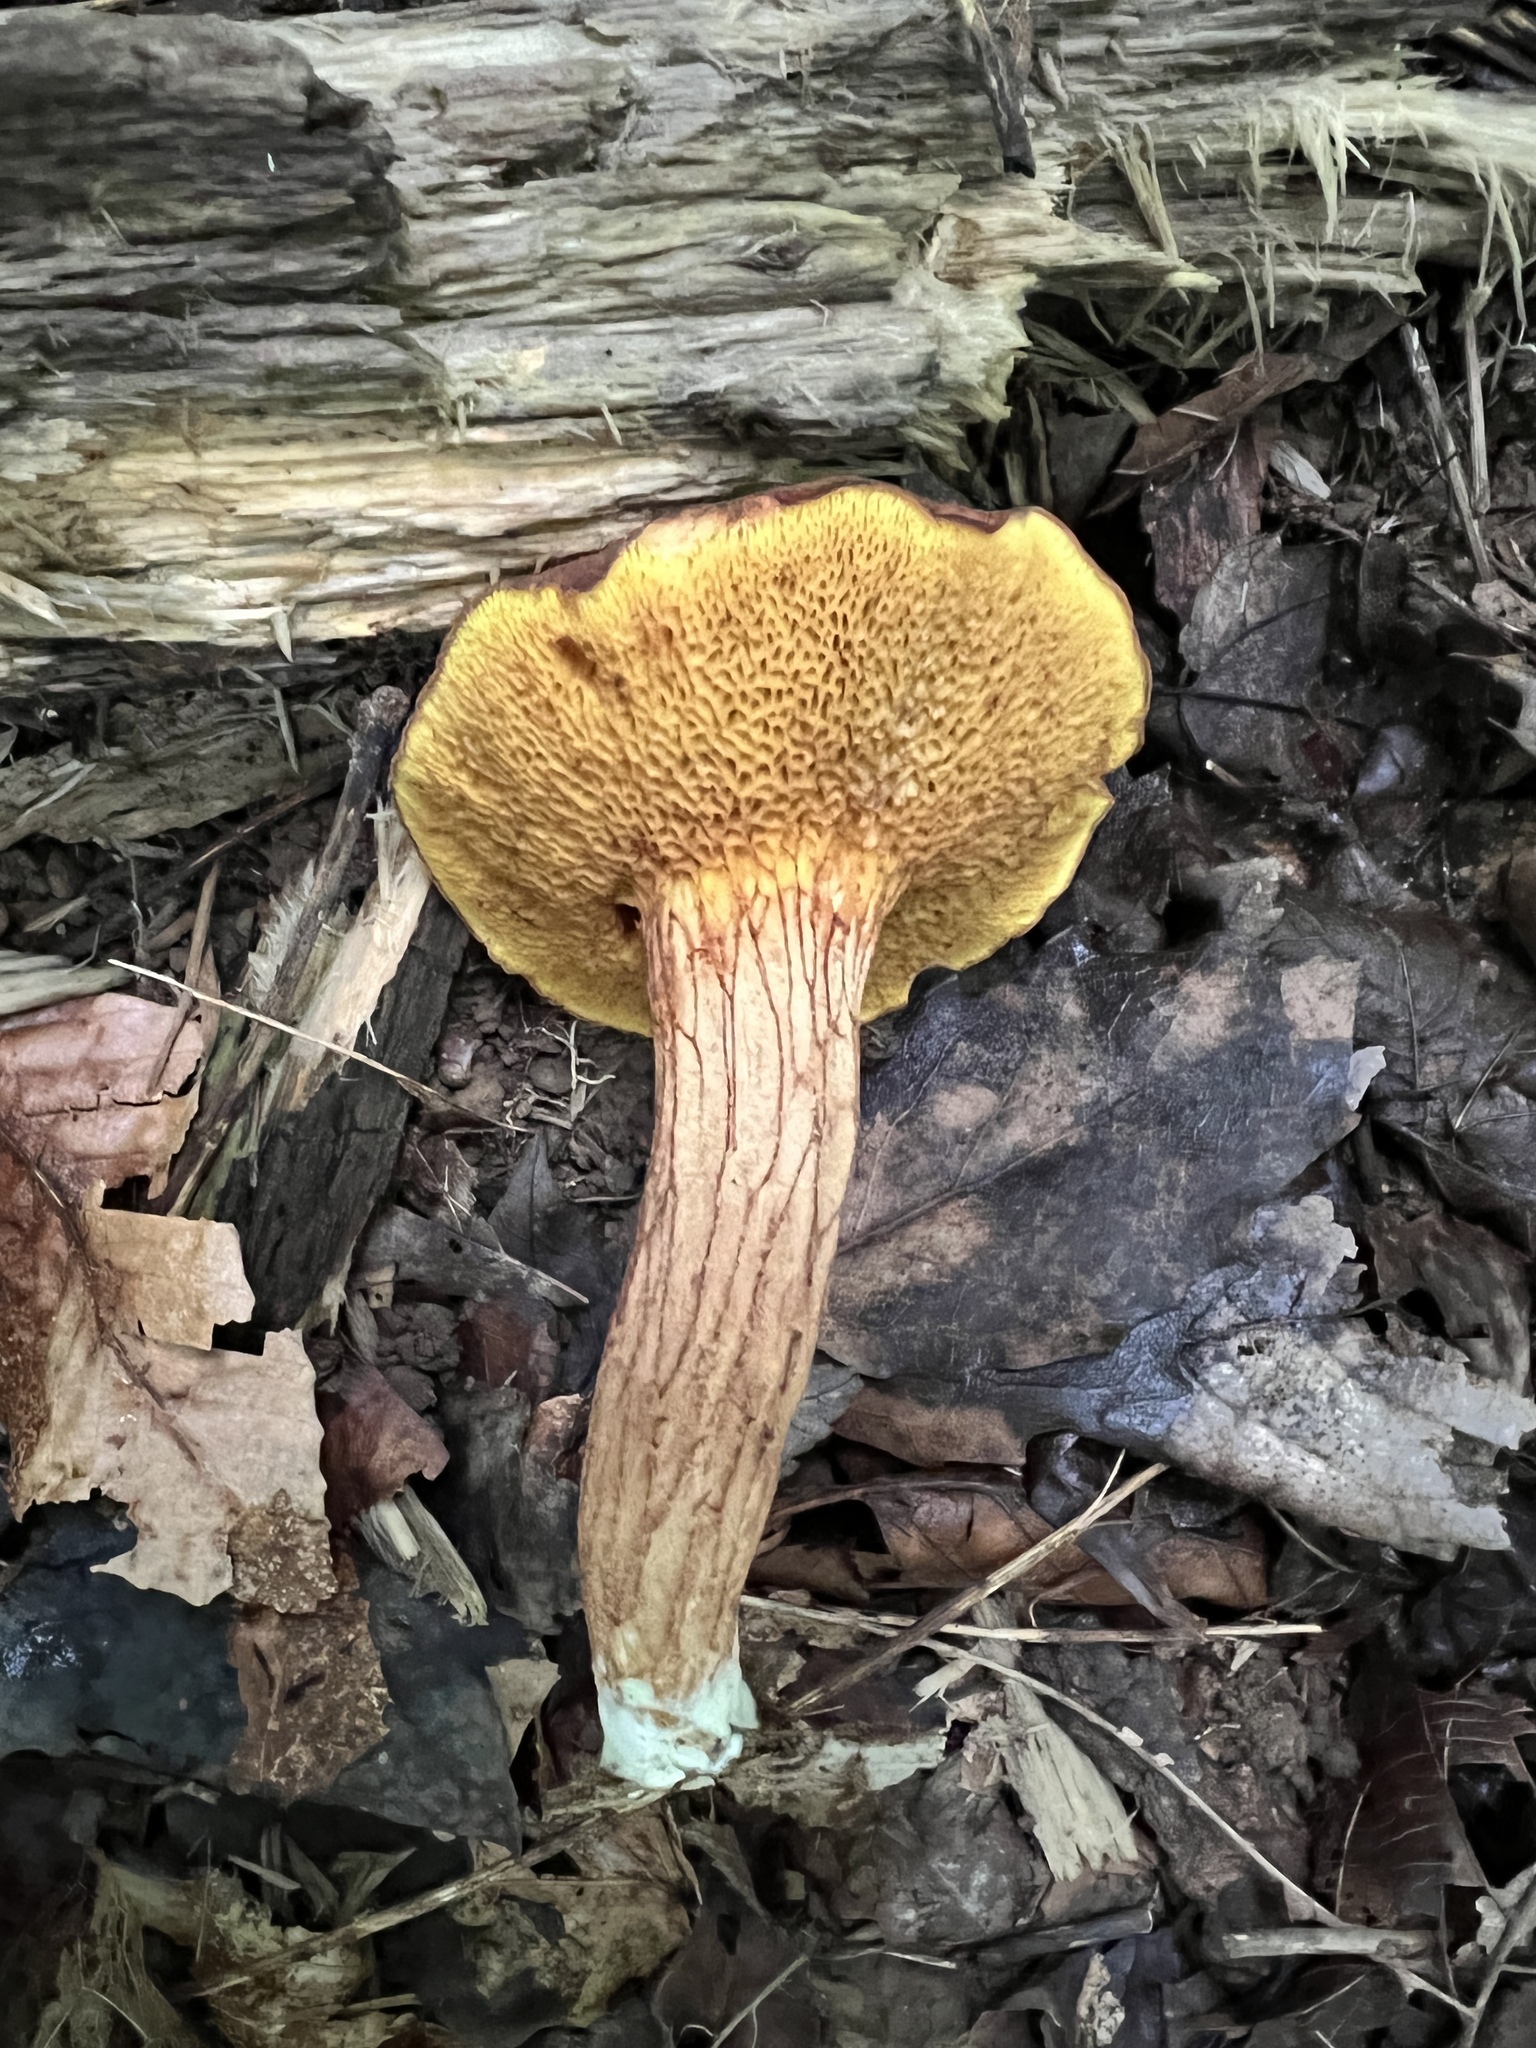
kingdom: Fungi
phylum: Basidiomycota
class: Agaricomycetes
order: Boletales
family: Boletaceae
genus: Xerocomus
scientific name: Xerocomus illudens
